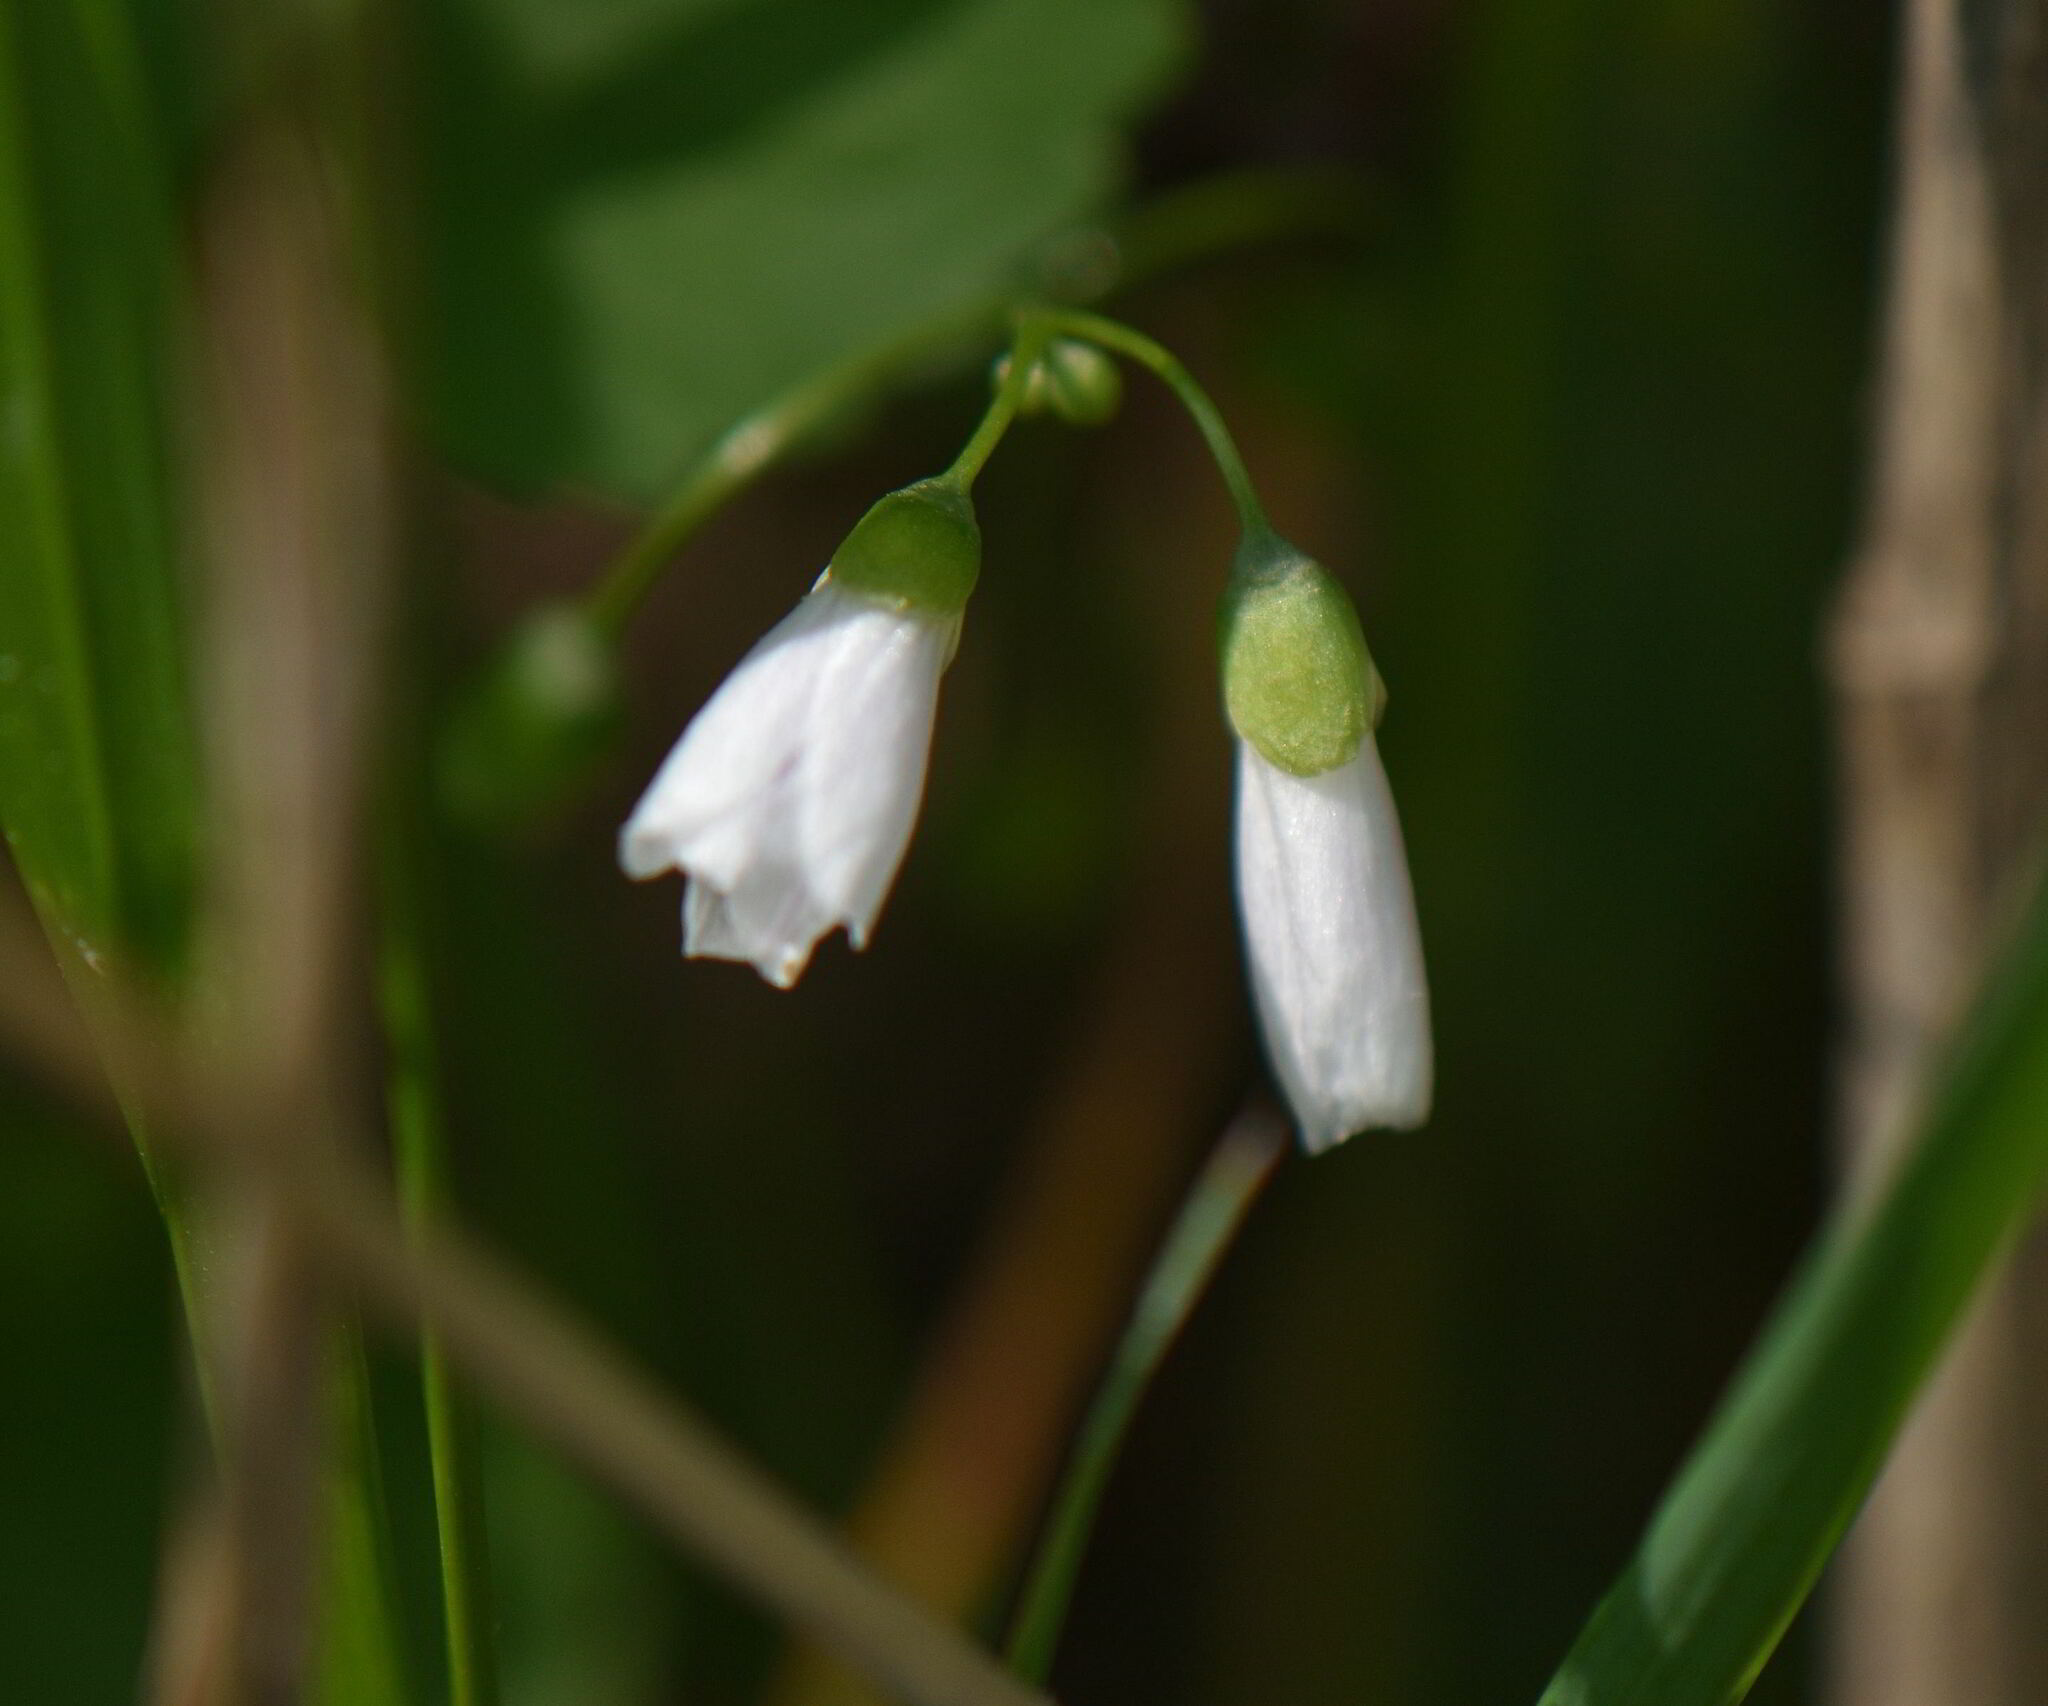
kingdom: Plantae
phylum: Tracheophyta
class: Magnoliopsida
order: Caryophyllales
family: Montiaceae
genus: Claytonia
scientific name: Claytonia virginica
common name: Virginia springbeauty
